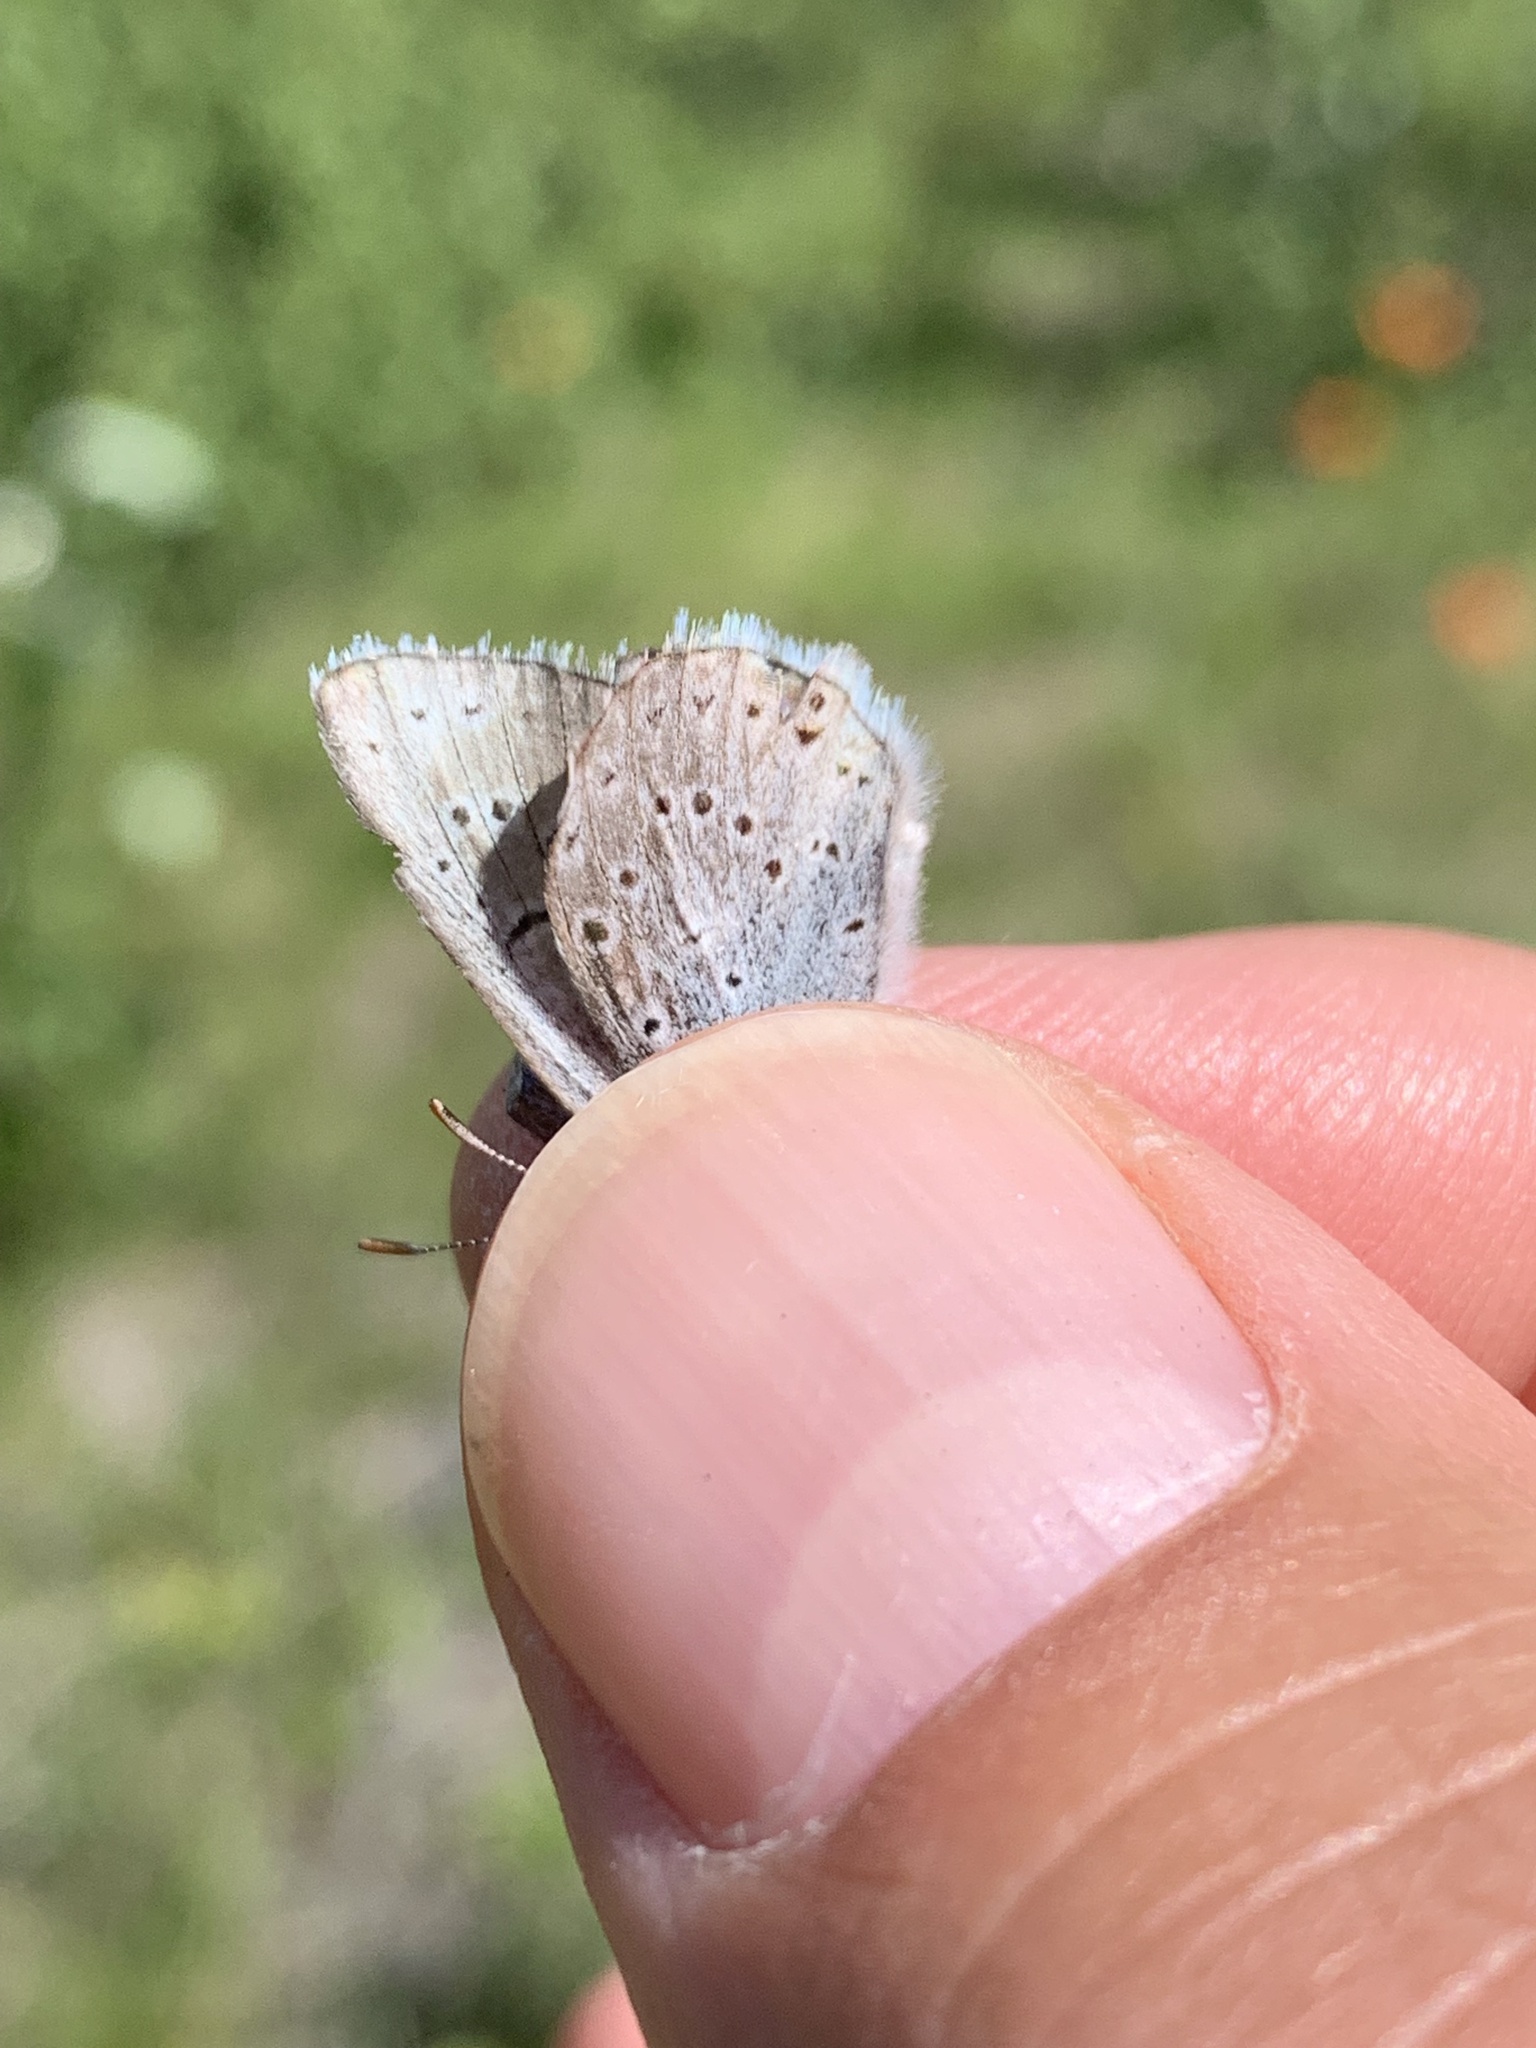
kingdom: Animalia
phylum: Arthropoda
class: Insecta
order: Lepidoptera
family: Lycaenidae
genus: Icaricia
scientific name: Icaricia saepiolus
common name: Greenish blue
